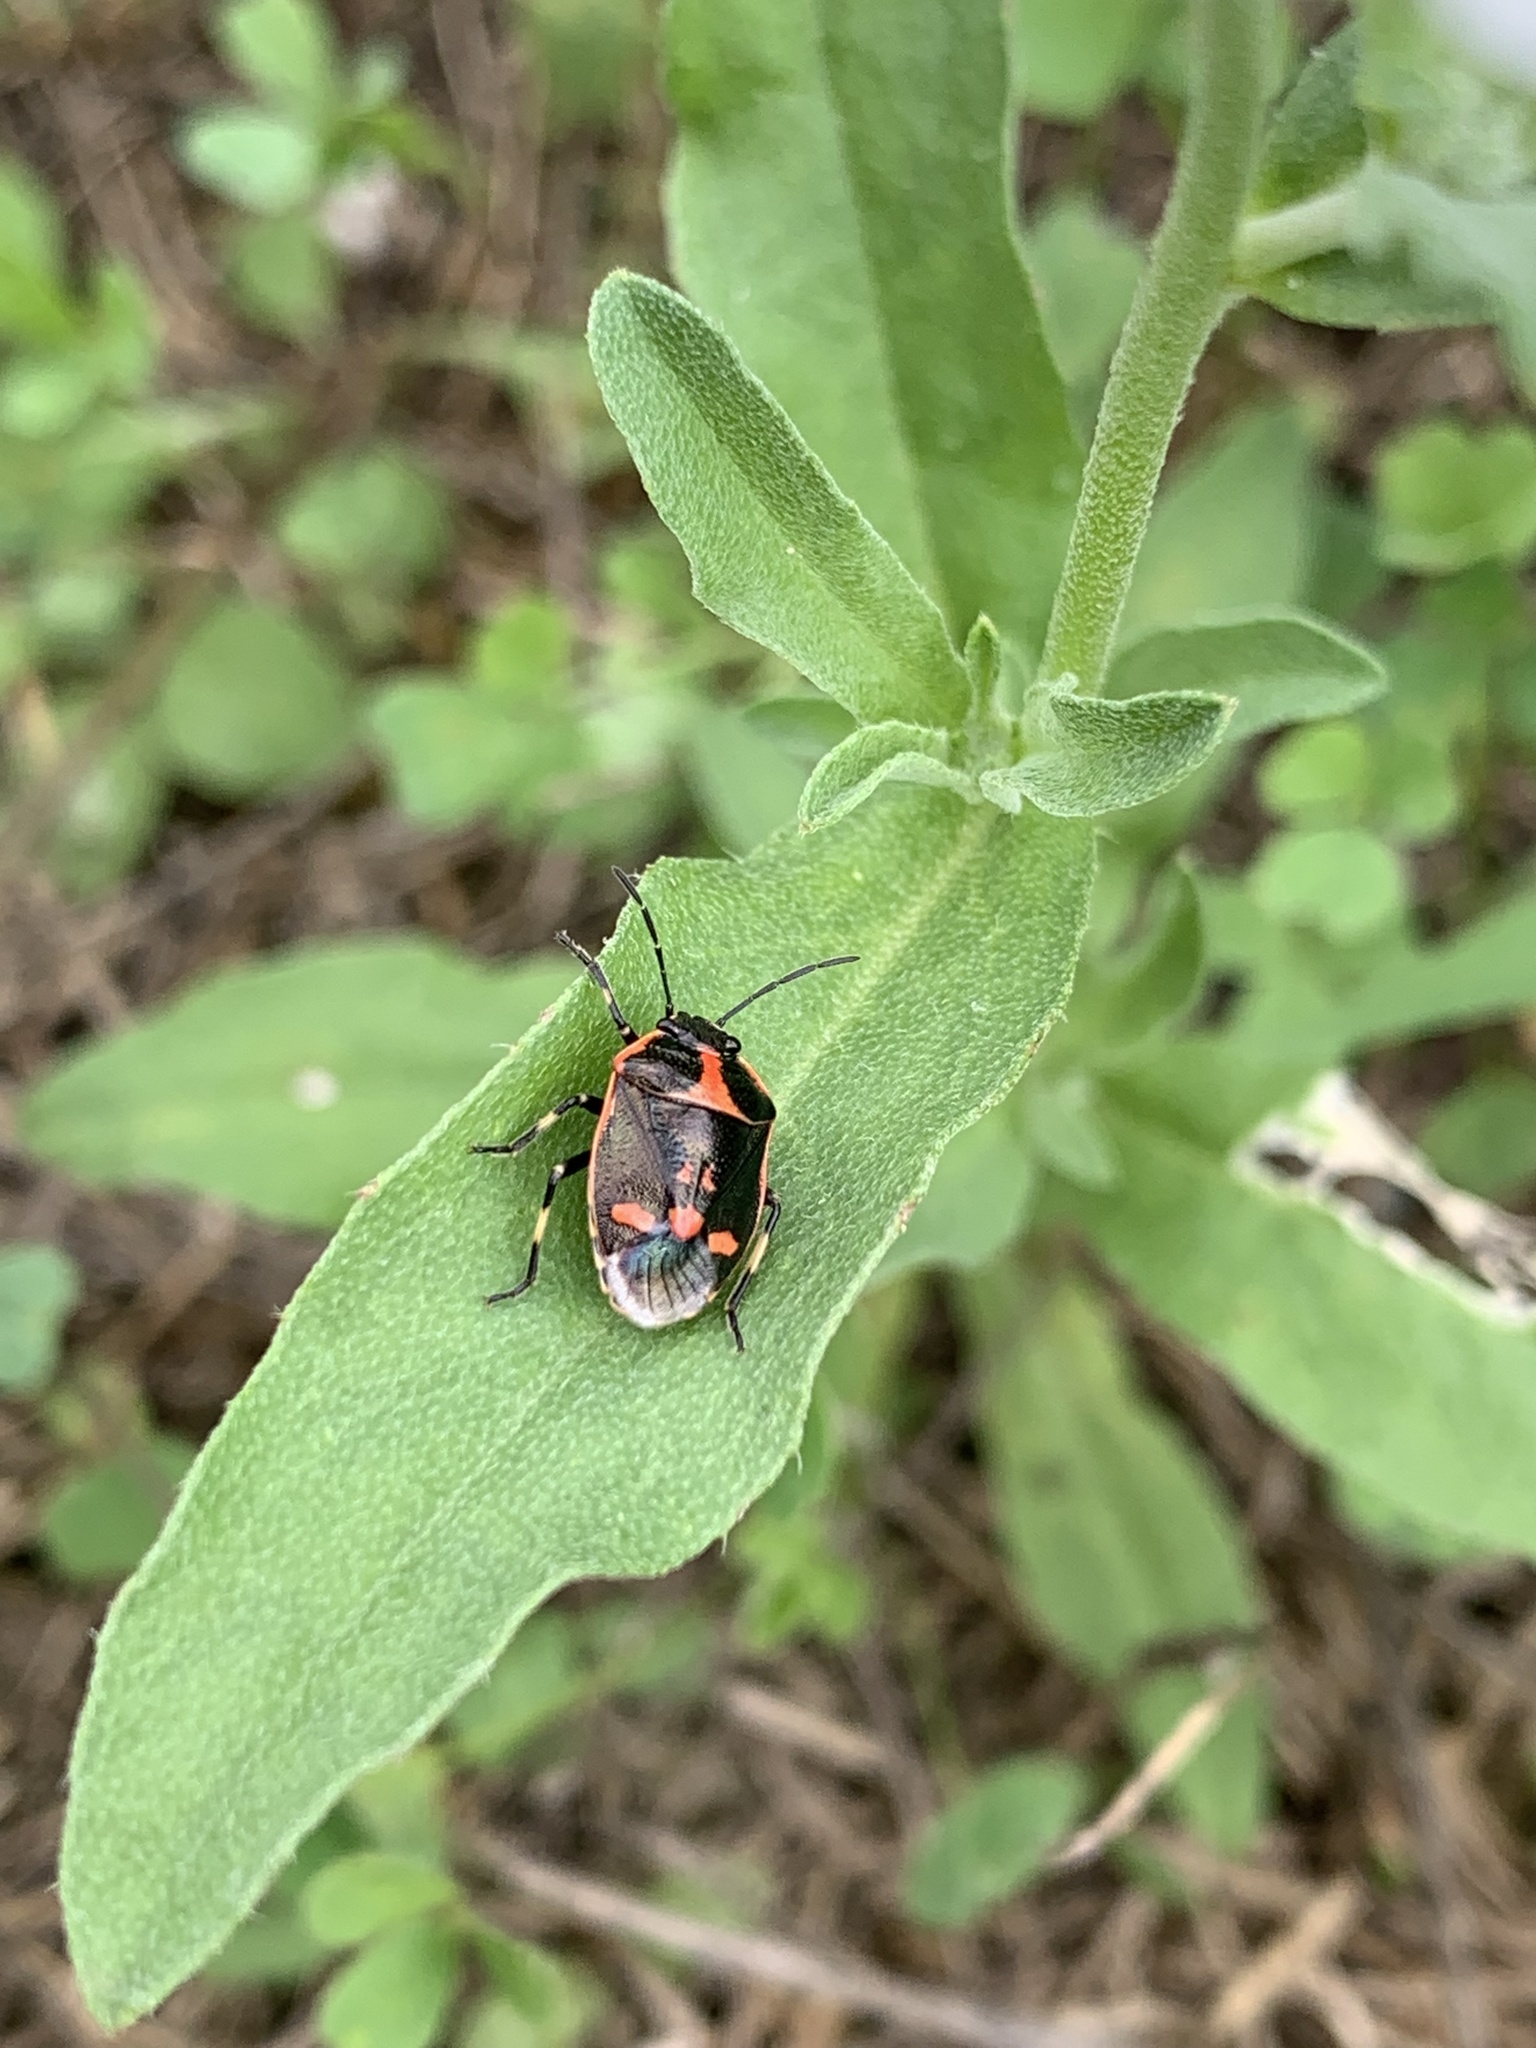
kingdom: Animalia
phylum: Arthropoda
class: Insecta
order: Hemiptera
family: Pentatomidae
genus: Eurydema
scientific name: Eurydema oleracea
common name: Cabbage bug
